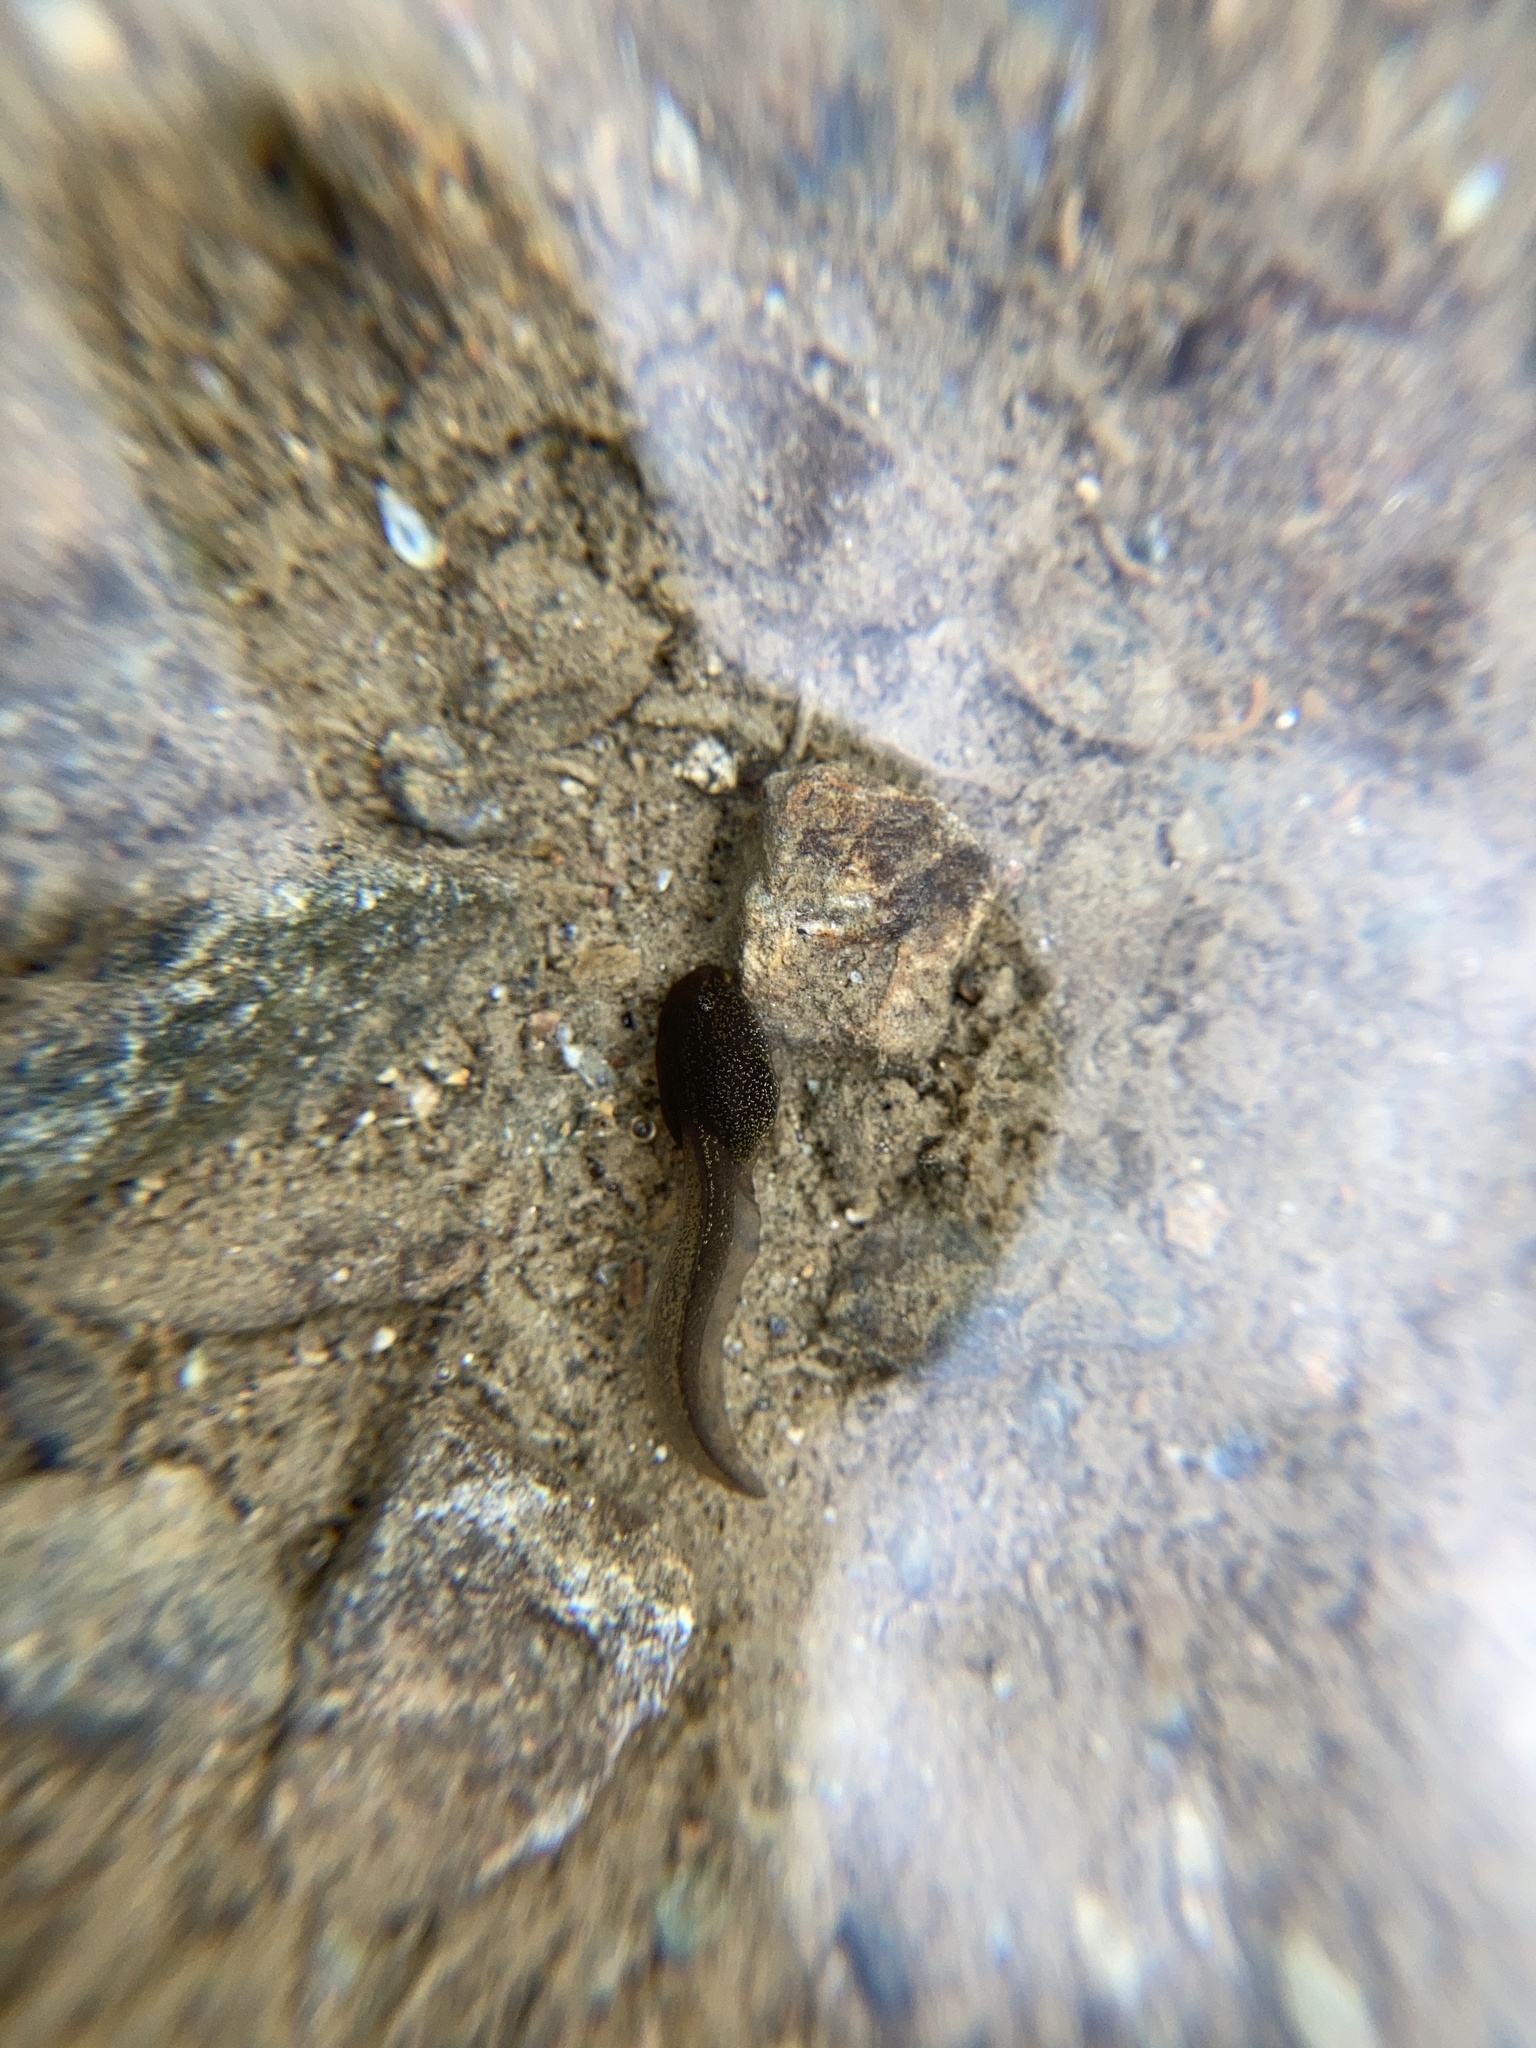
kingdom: Animalia
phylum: Chordata
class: Amphibia
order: Anura
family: Ranidae
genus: Rana
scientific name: Rana temporaria
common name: Common frog
